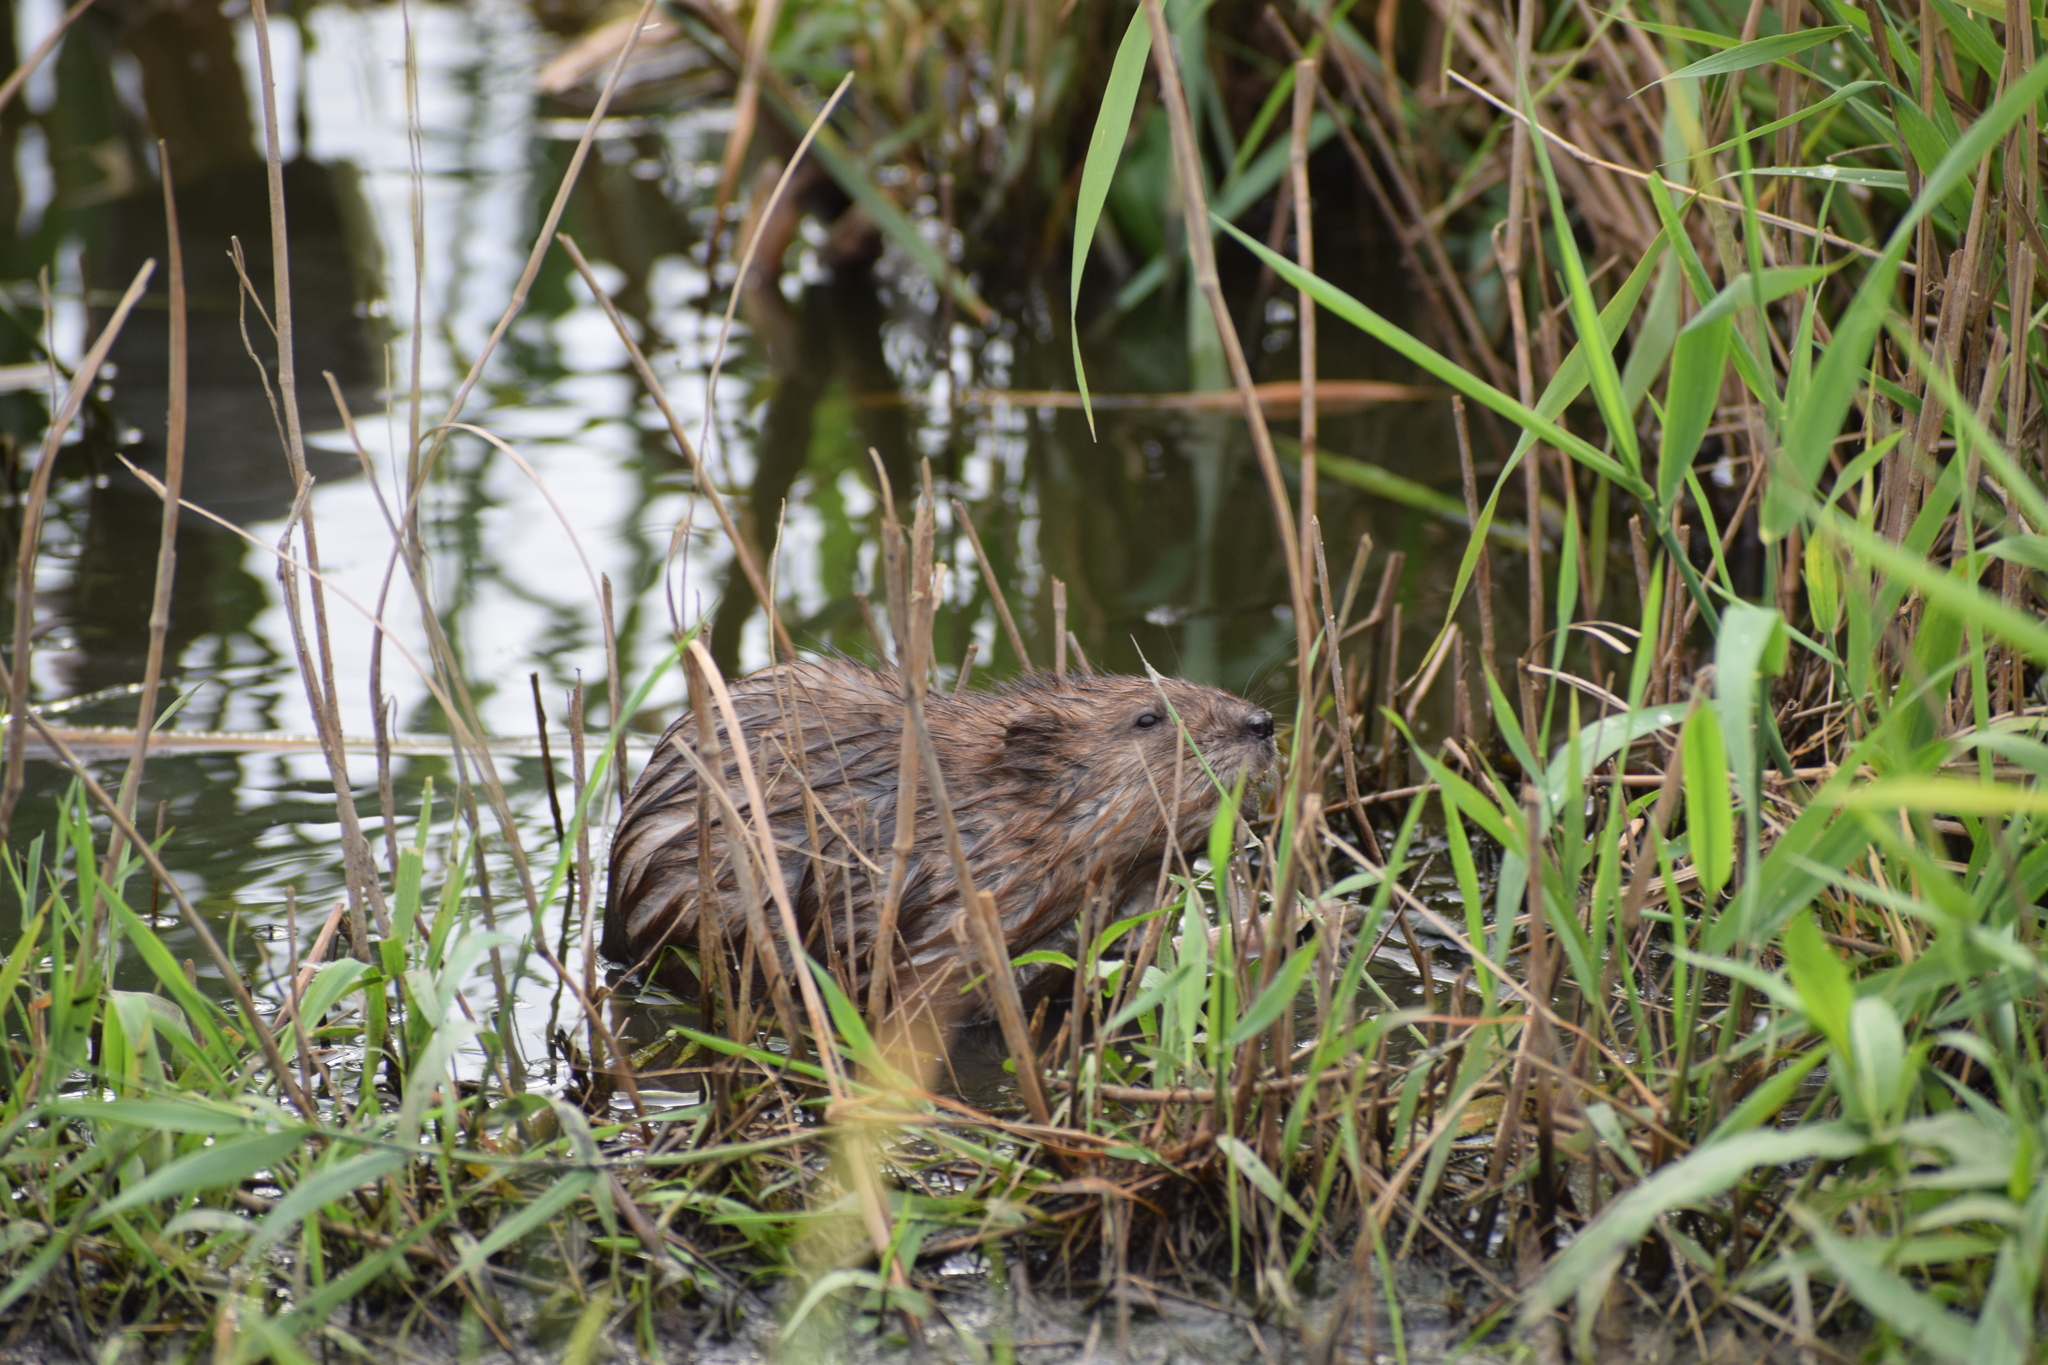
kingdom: Animalia
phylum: Chordata
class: Mammalia
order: Rodentia
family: Cricetidae
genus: Ondatra
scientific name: Ondatra zibethicus
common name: Muskrat
